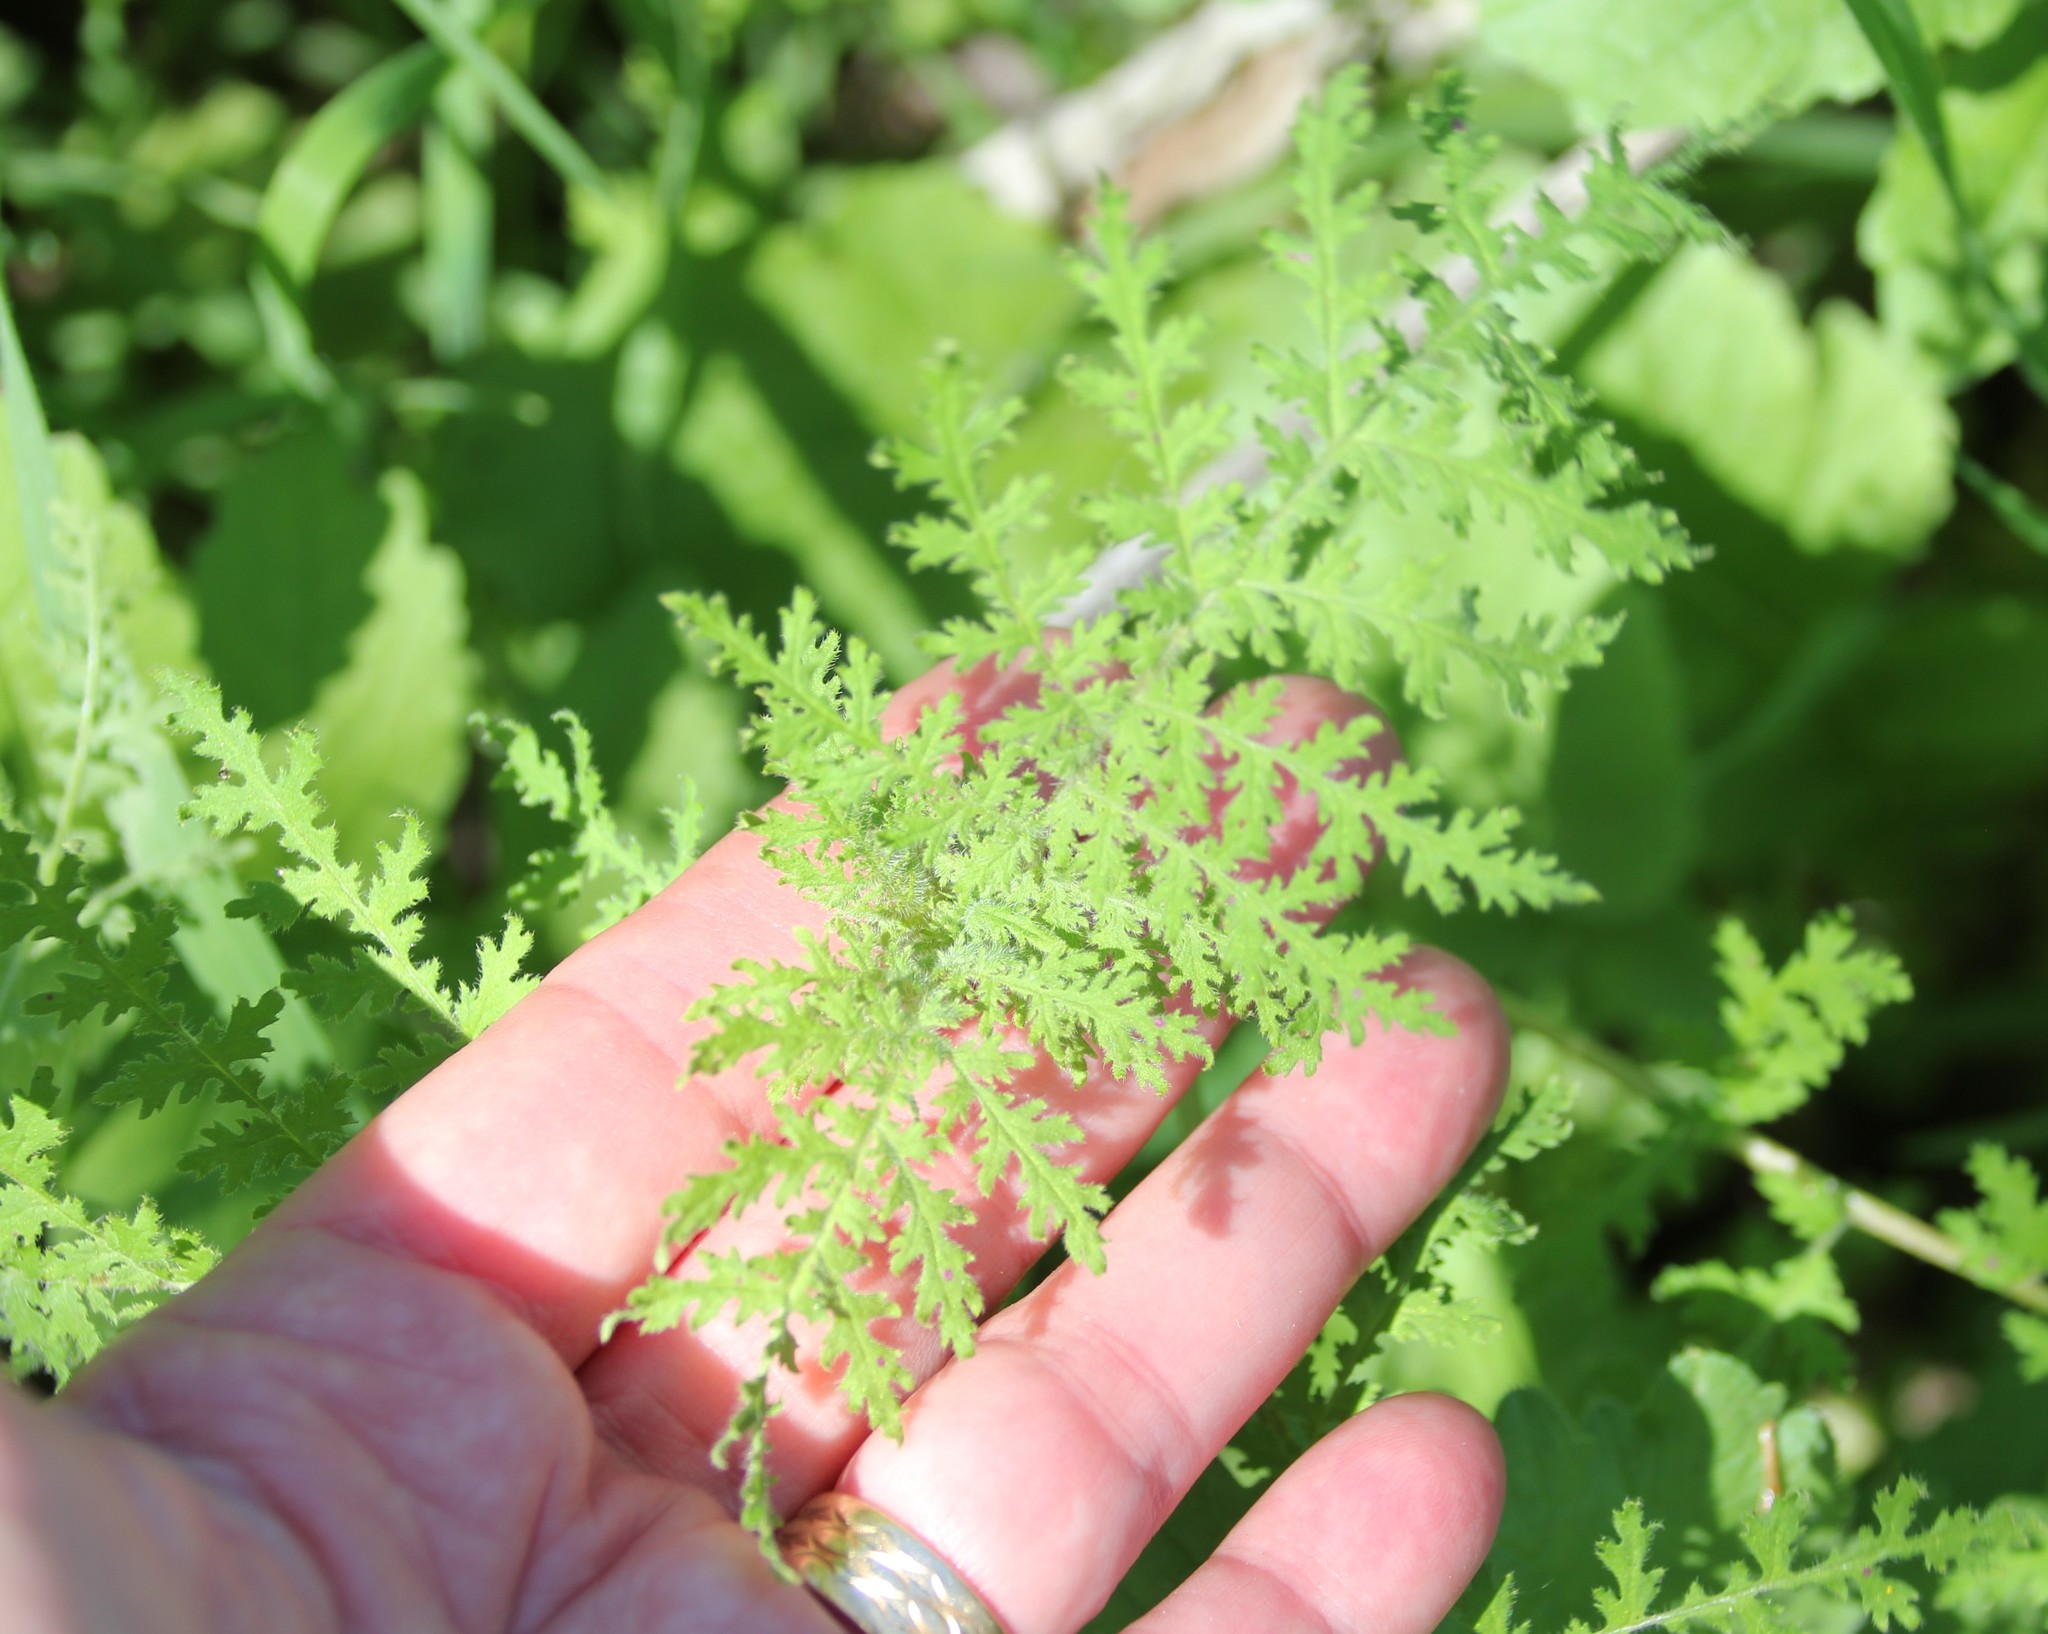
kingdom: Plantae
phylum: Tracheophyta
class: Magnoliopsida
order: Boraginales
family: Hydrophyllaceae
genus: Eucrypta
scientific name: Eucrypta chrysanthemifolia
